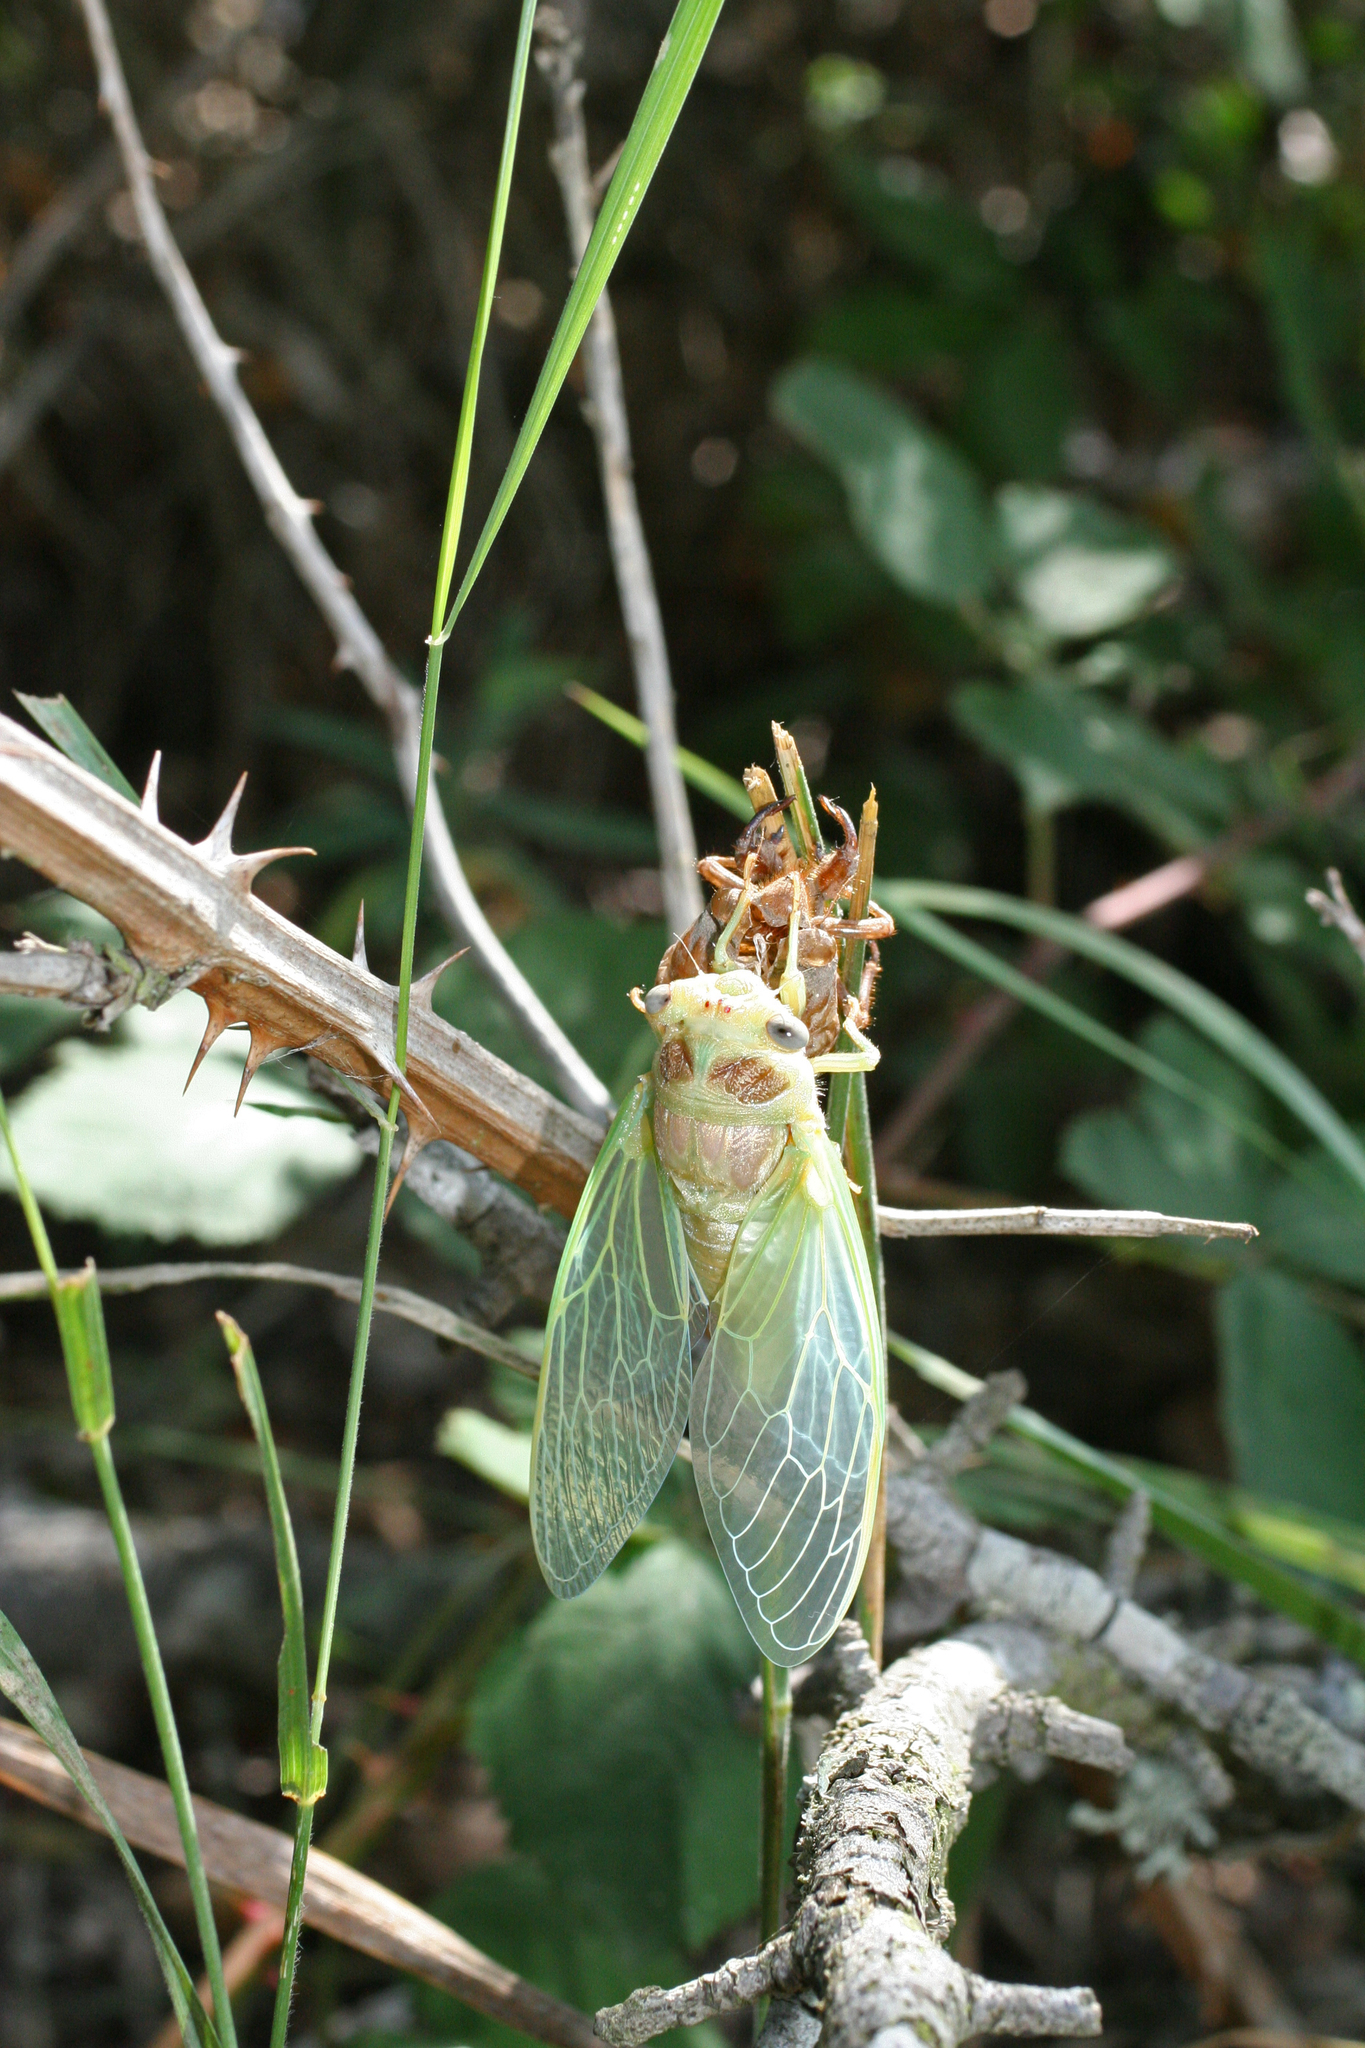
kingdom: Animalia
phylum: Arthropoda
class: Insecta
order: Hemiptera
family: Cicadidae
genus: Lyristes
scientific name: Lyristes plebejus
